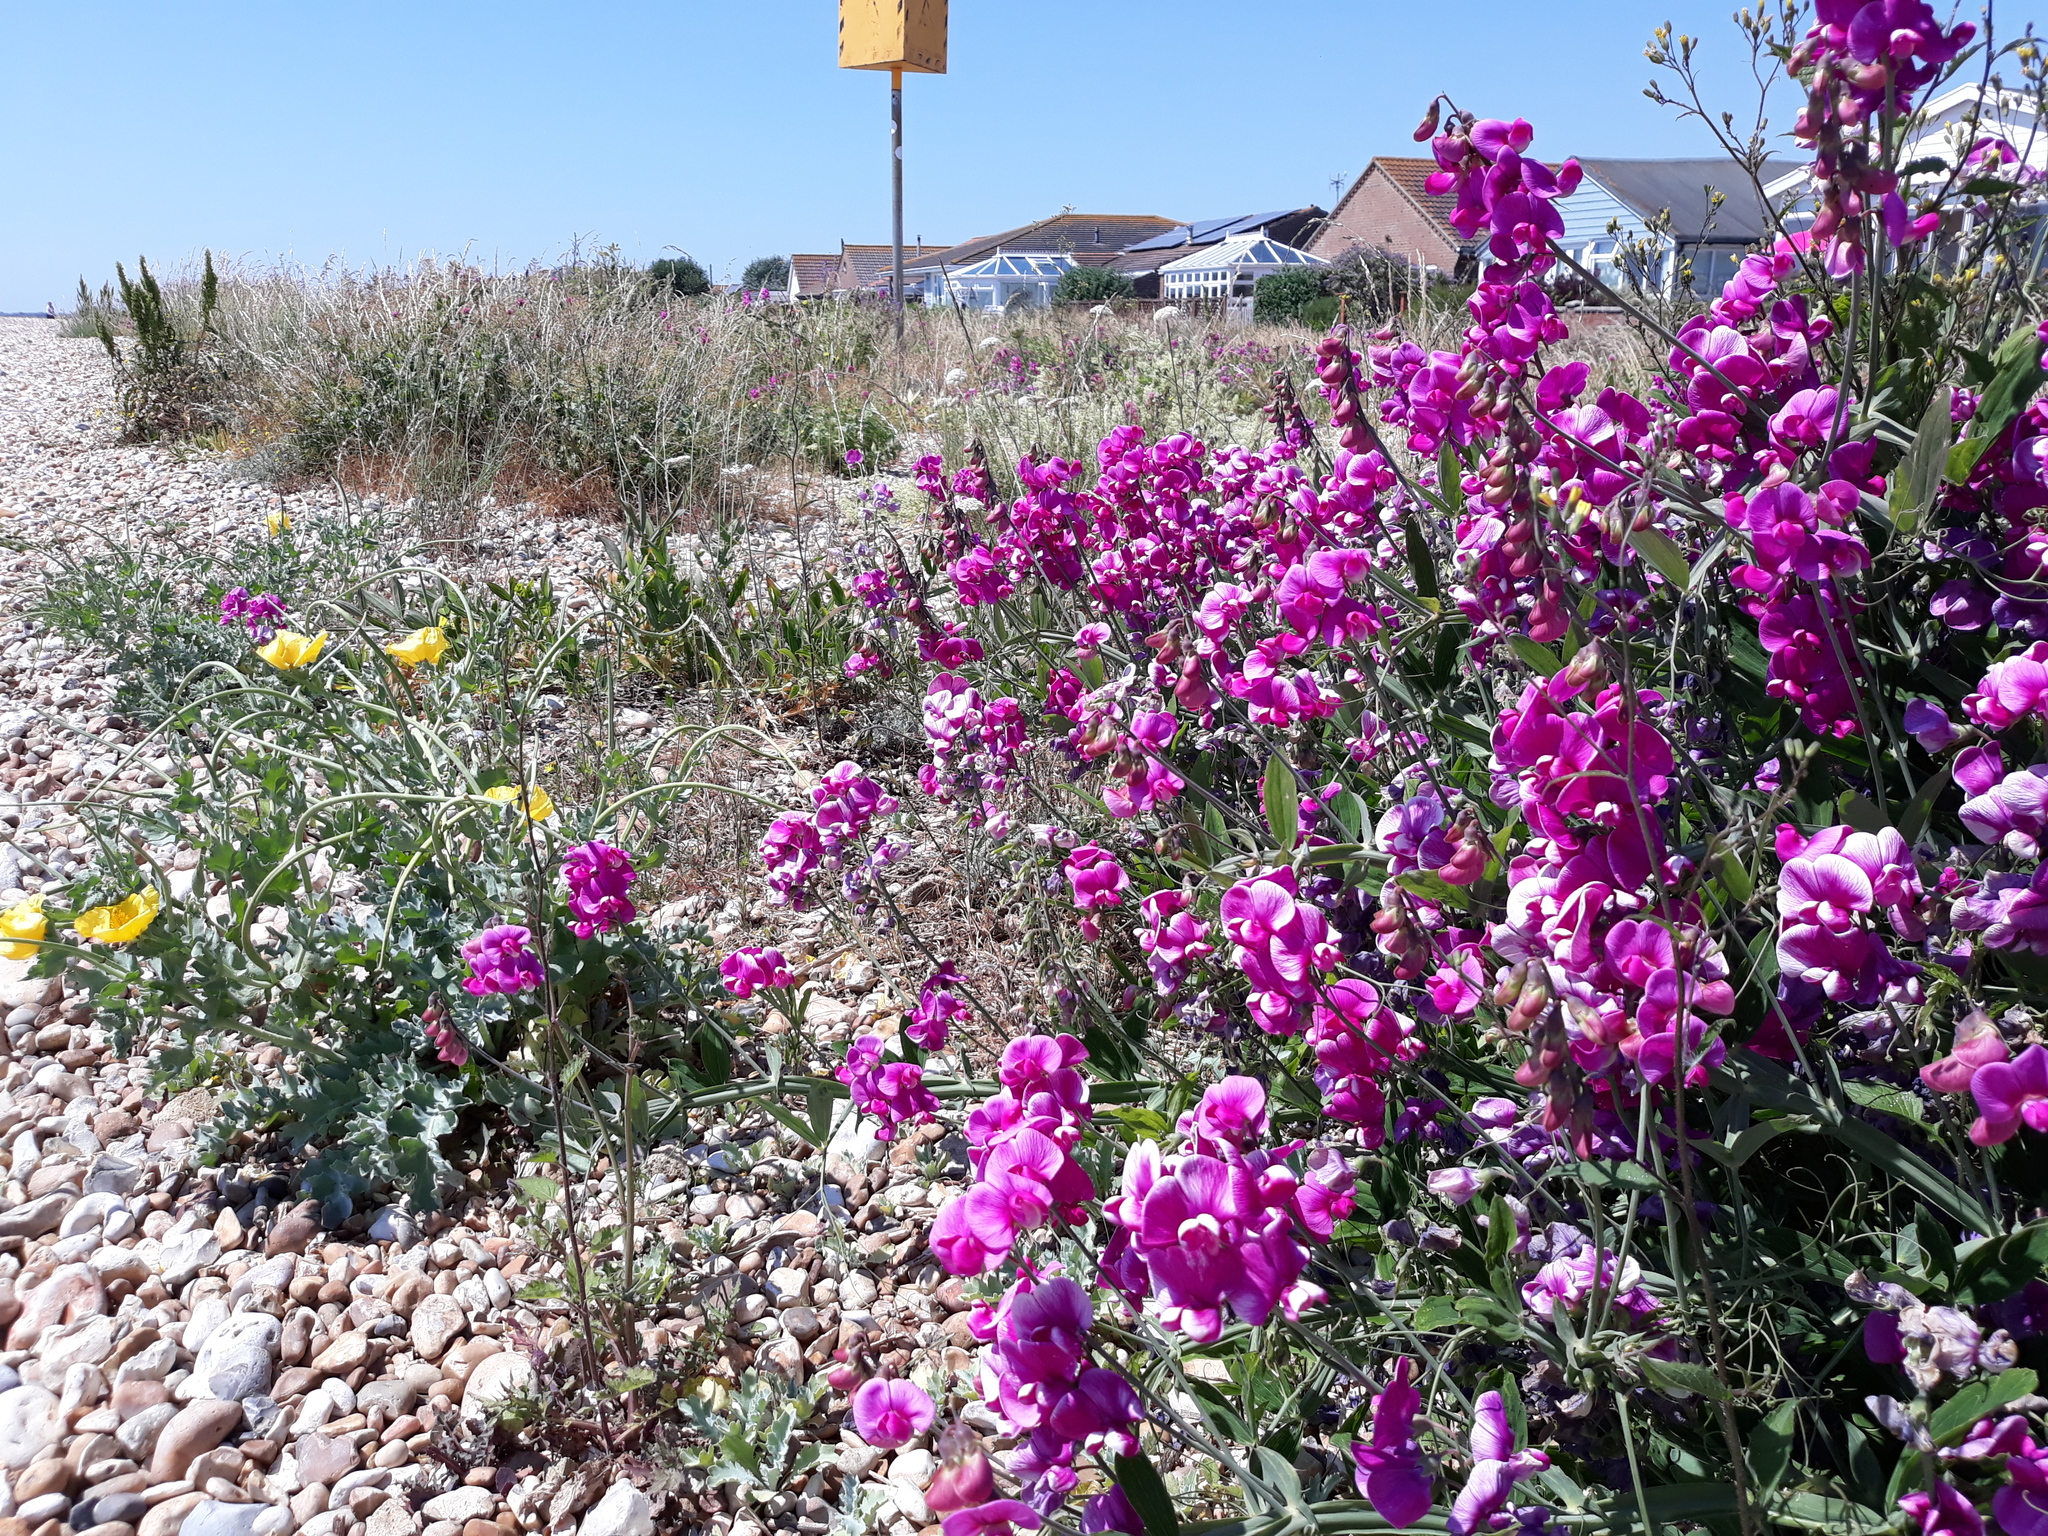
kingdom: Plantae
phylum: Tracheophyta
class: Magnoliopsida
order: Fabales
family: Fabaceae
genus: Lathyrus
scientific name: Lathyrus latifolius
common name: Perennial pea
